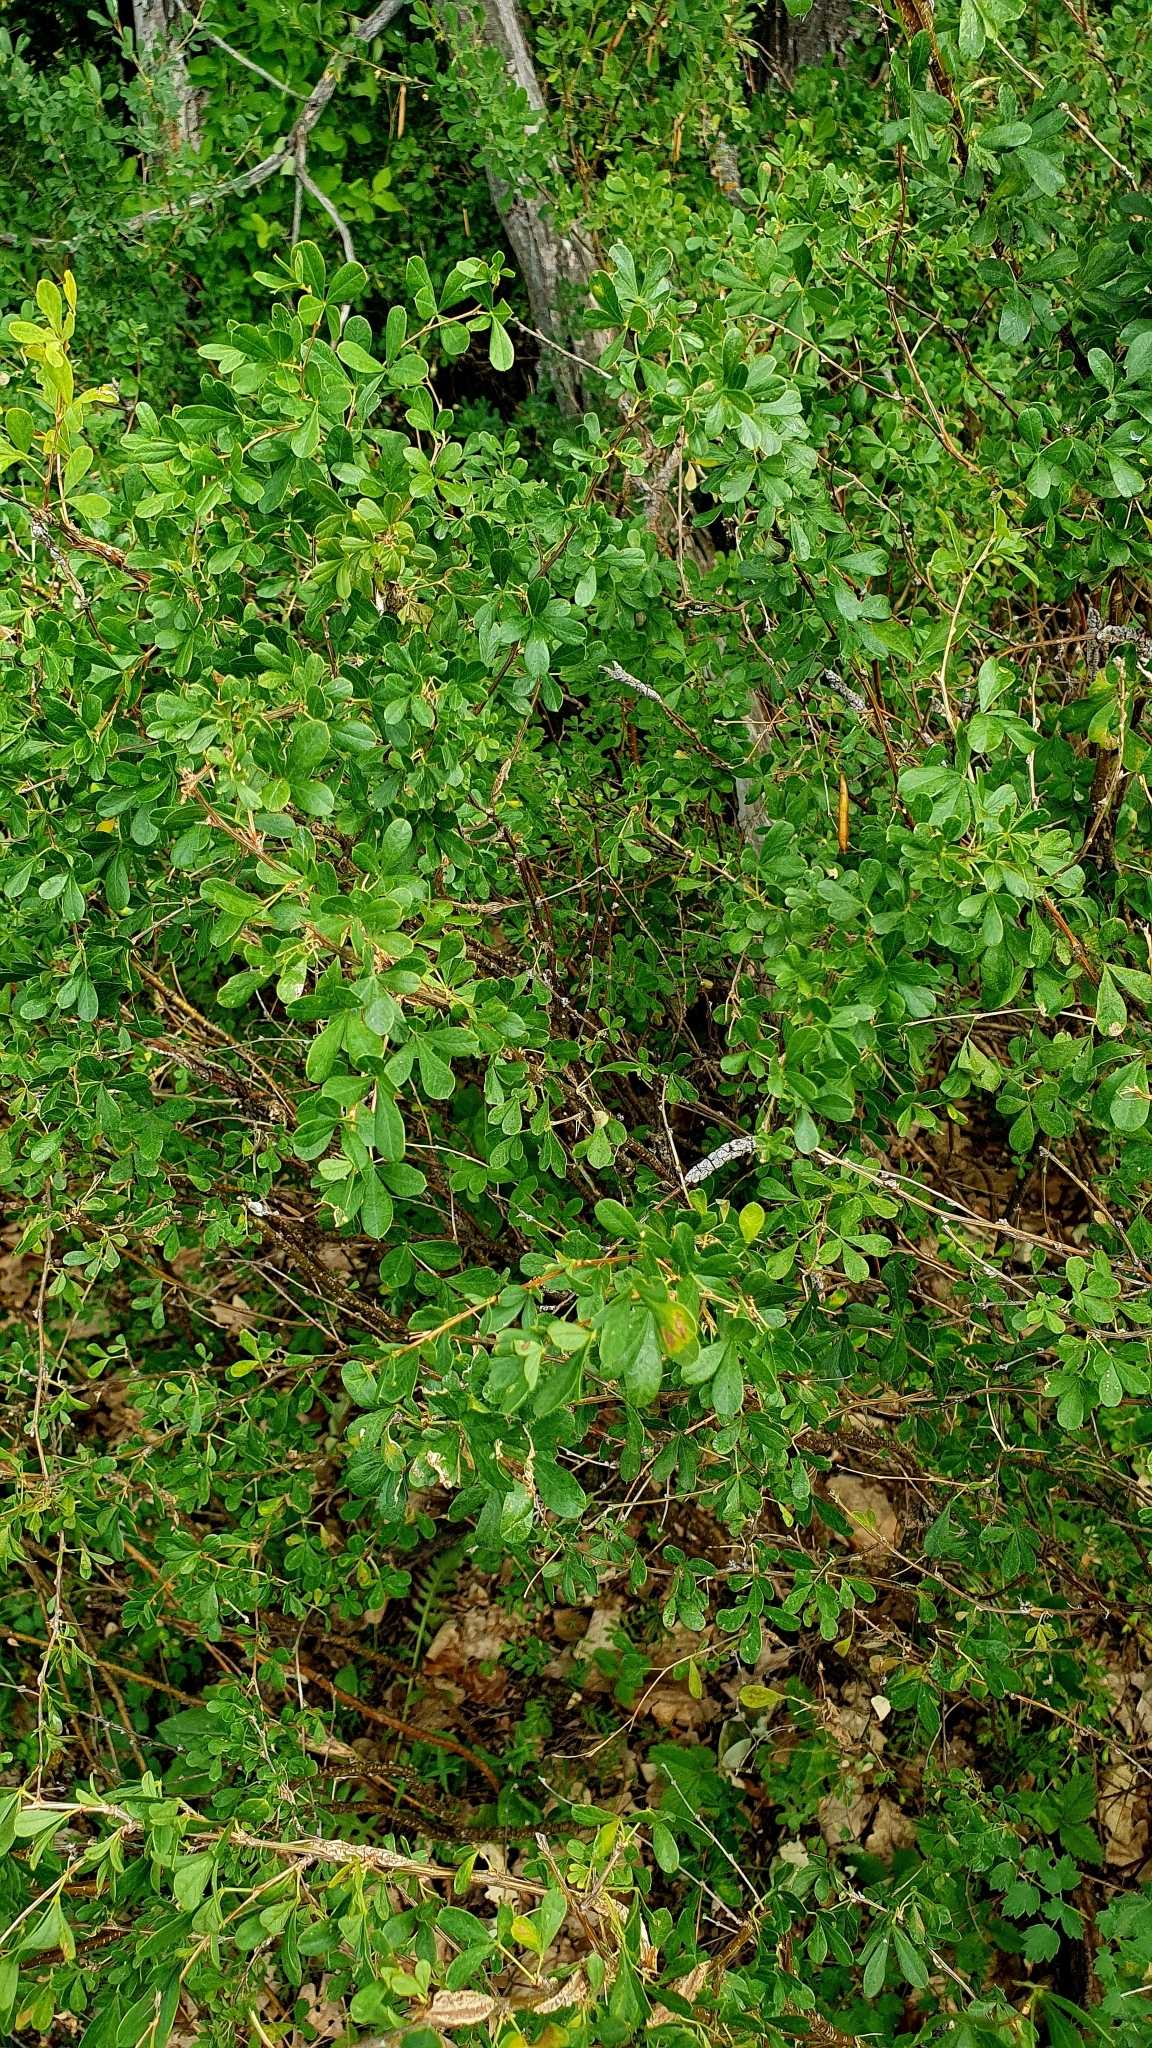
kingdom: Plantae
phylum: Tracheophyta
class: Magnoliopsida
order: Fabales
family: Fabaceae
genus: Caragana
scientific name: Caragana frutex
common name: Russian peashrub
